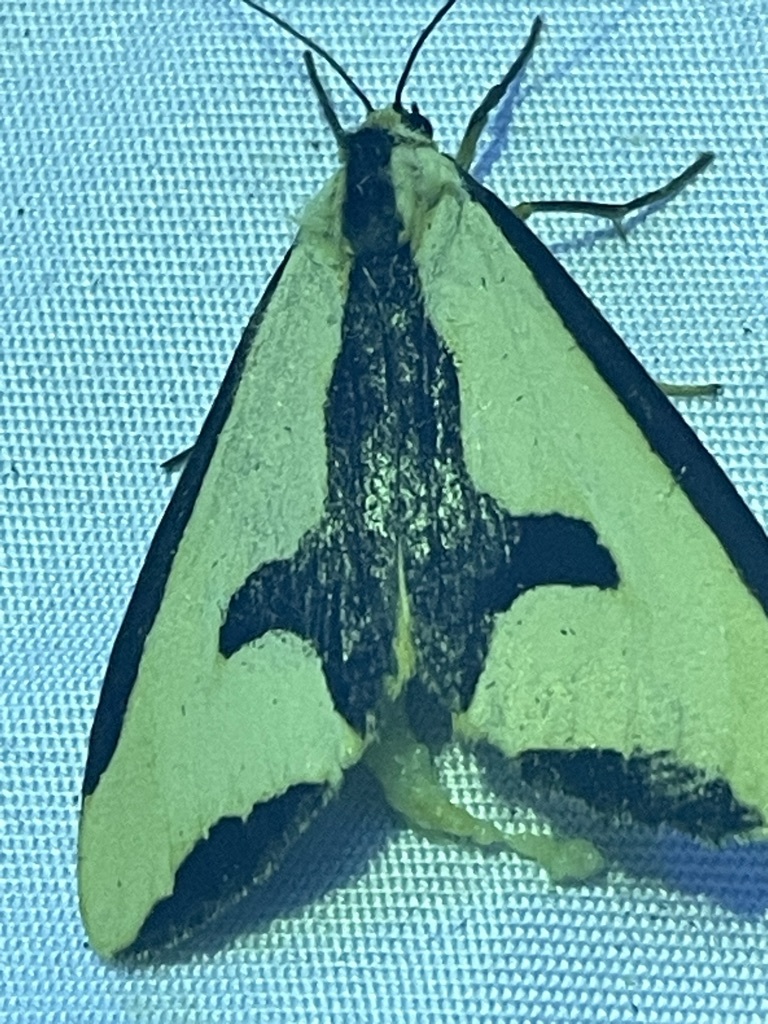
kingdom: Animalia
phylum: Arthropoda
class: Insecta
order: Lepidoptera
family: Erebidae
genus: Haploa
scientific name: Haploa clymene
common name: Clymene moth
